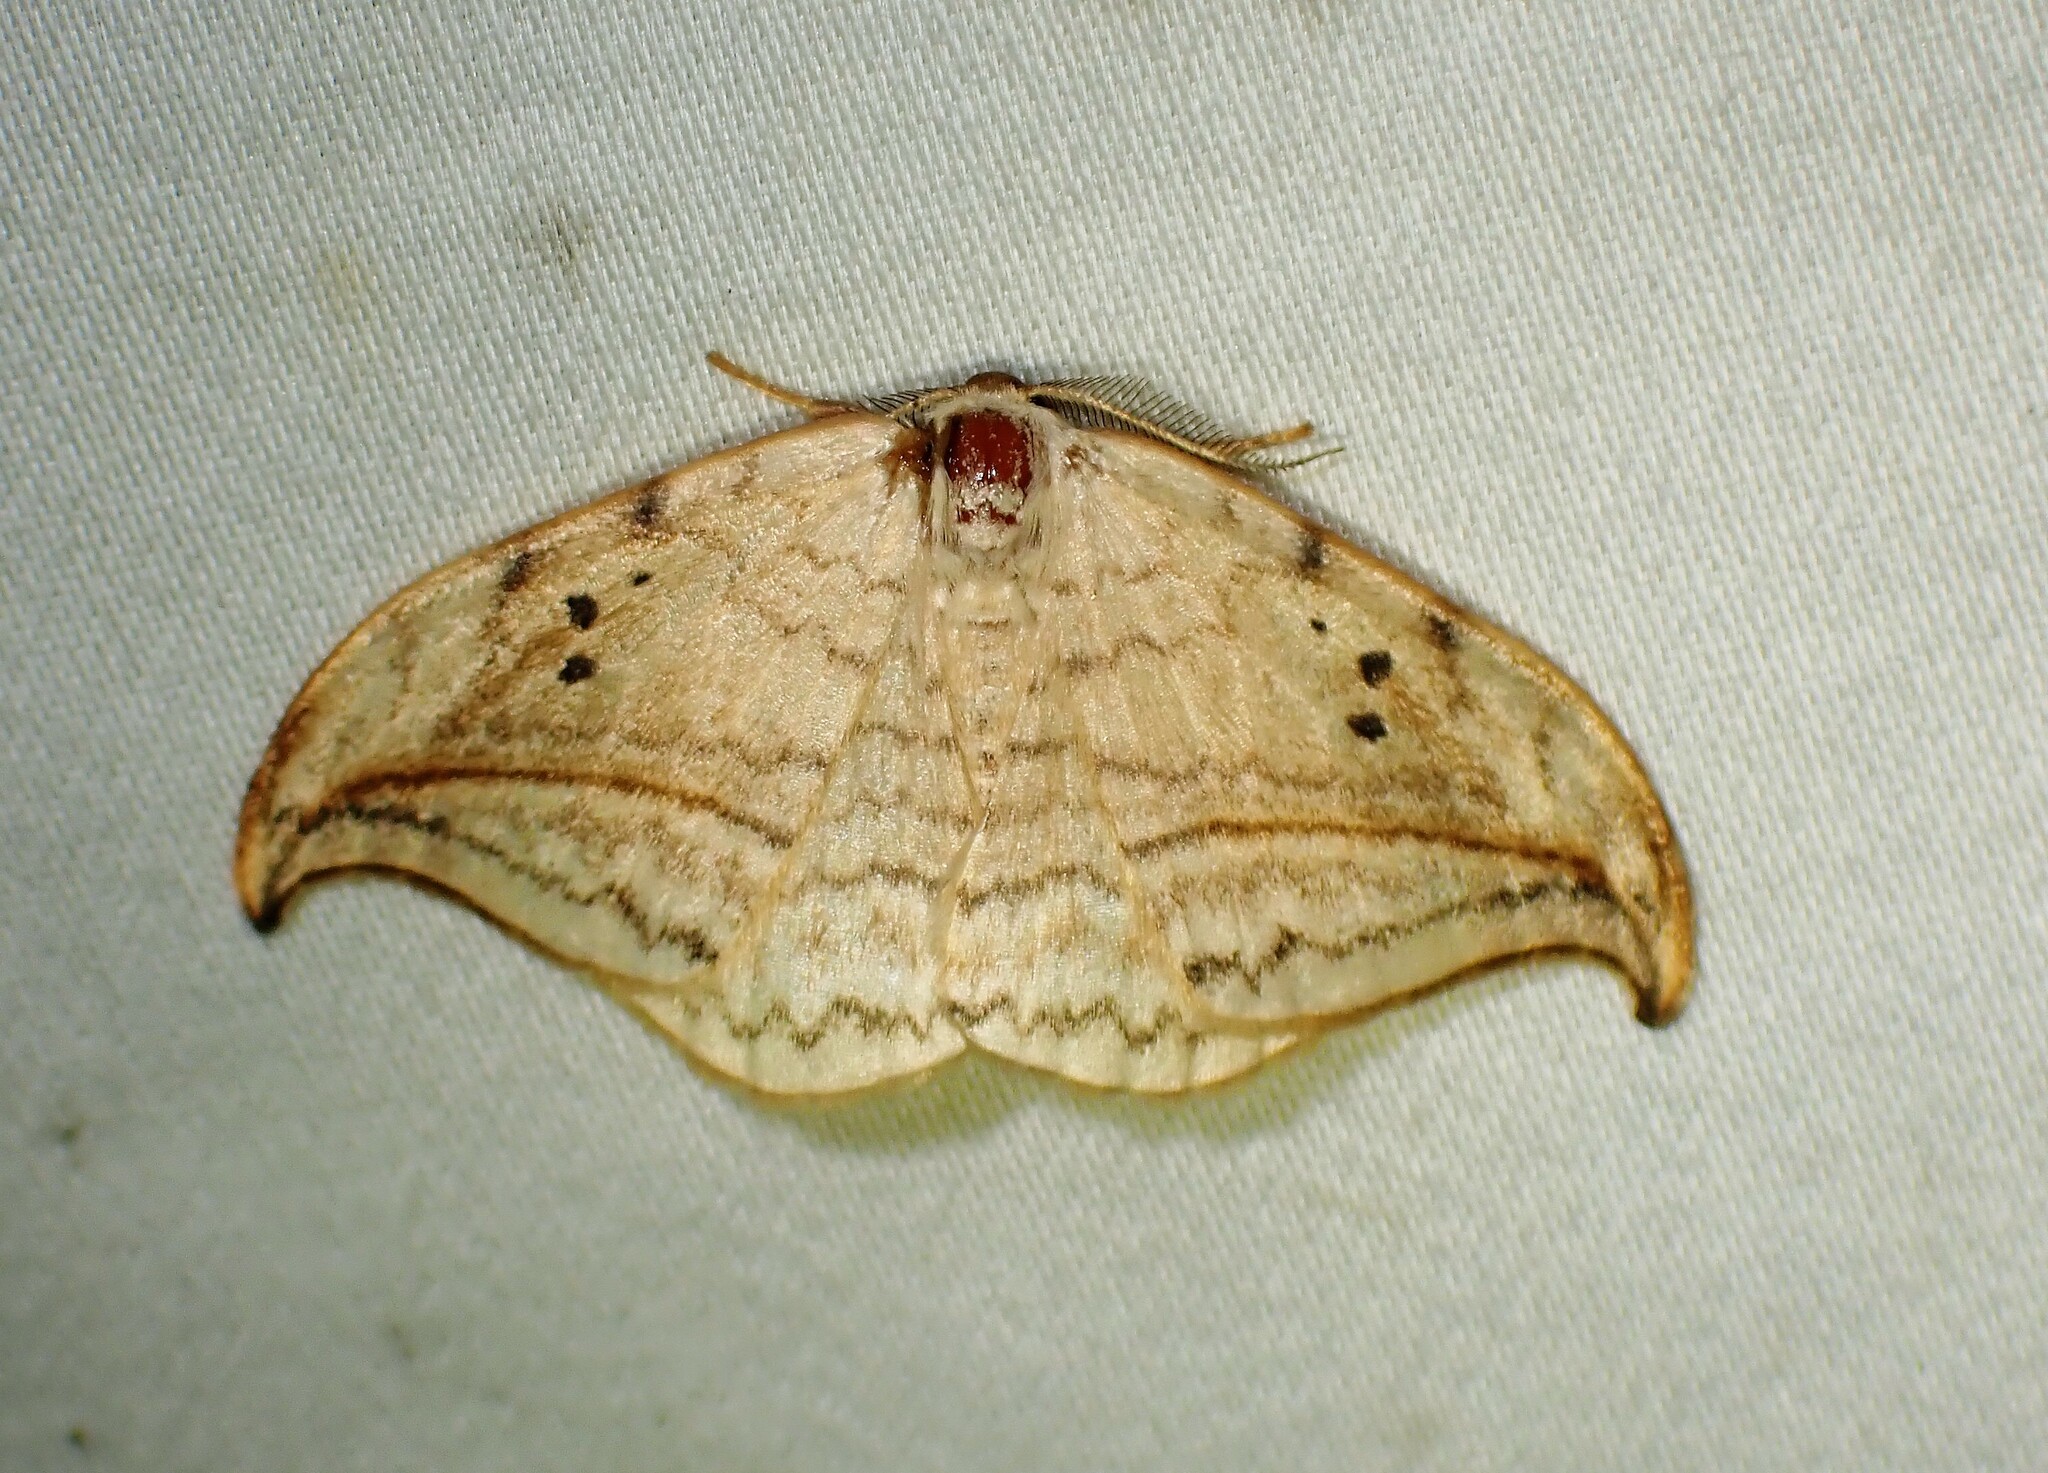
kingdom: Animalia
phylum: Arthropoda
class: Insecta
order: Lepidoptera
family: Drepanidae
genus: Drepana
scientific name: Drepana arcuata
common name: Arched hooktip moth
